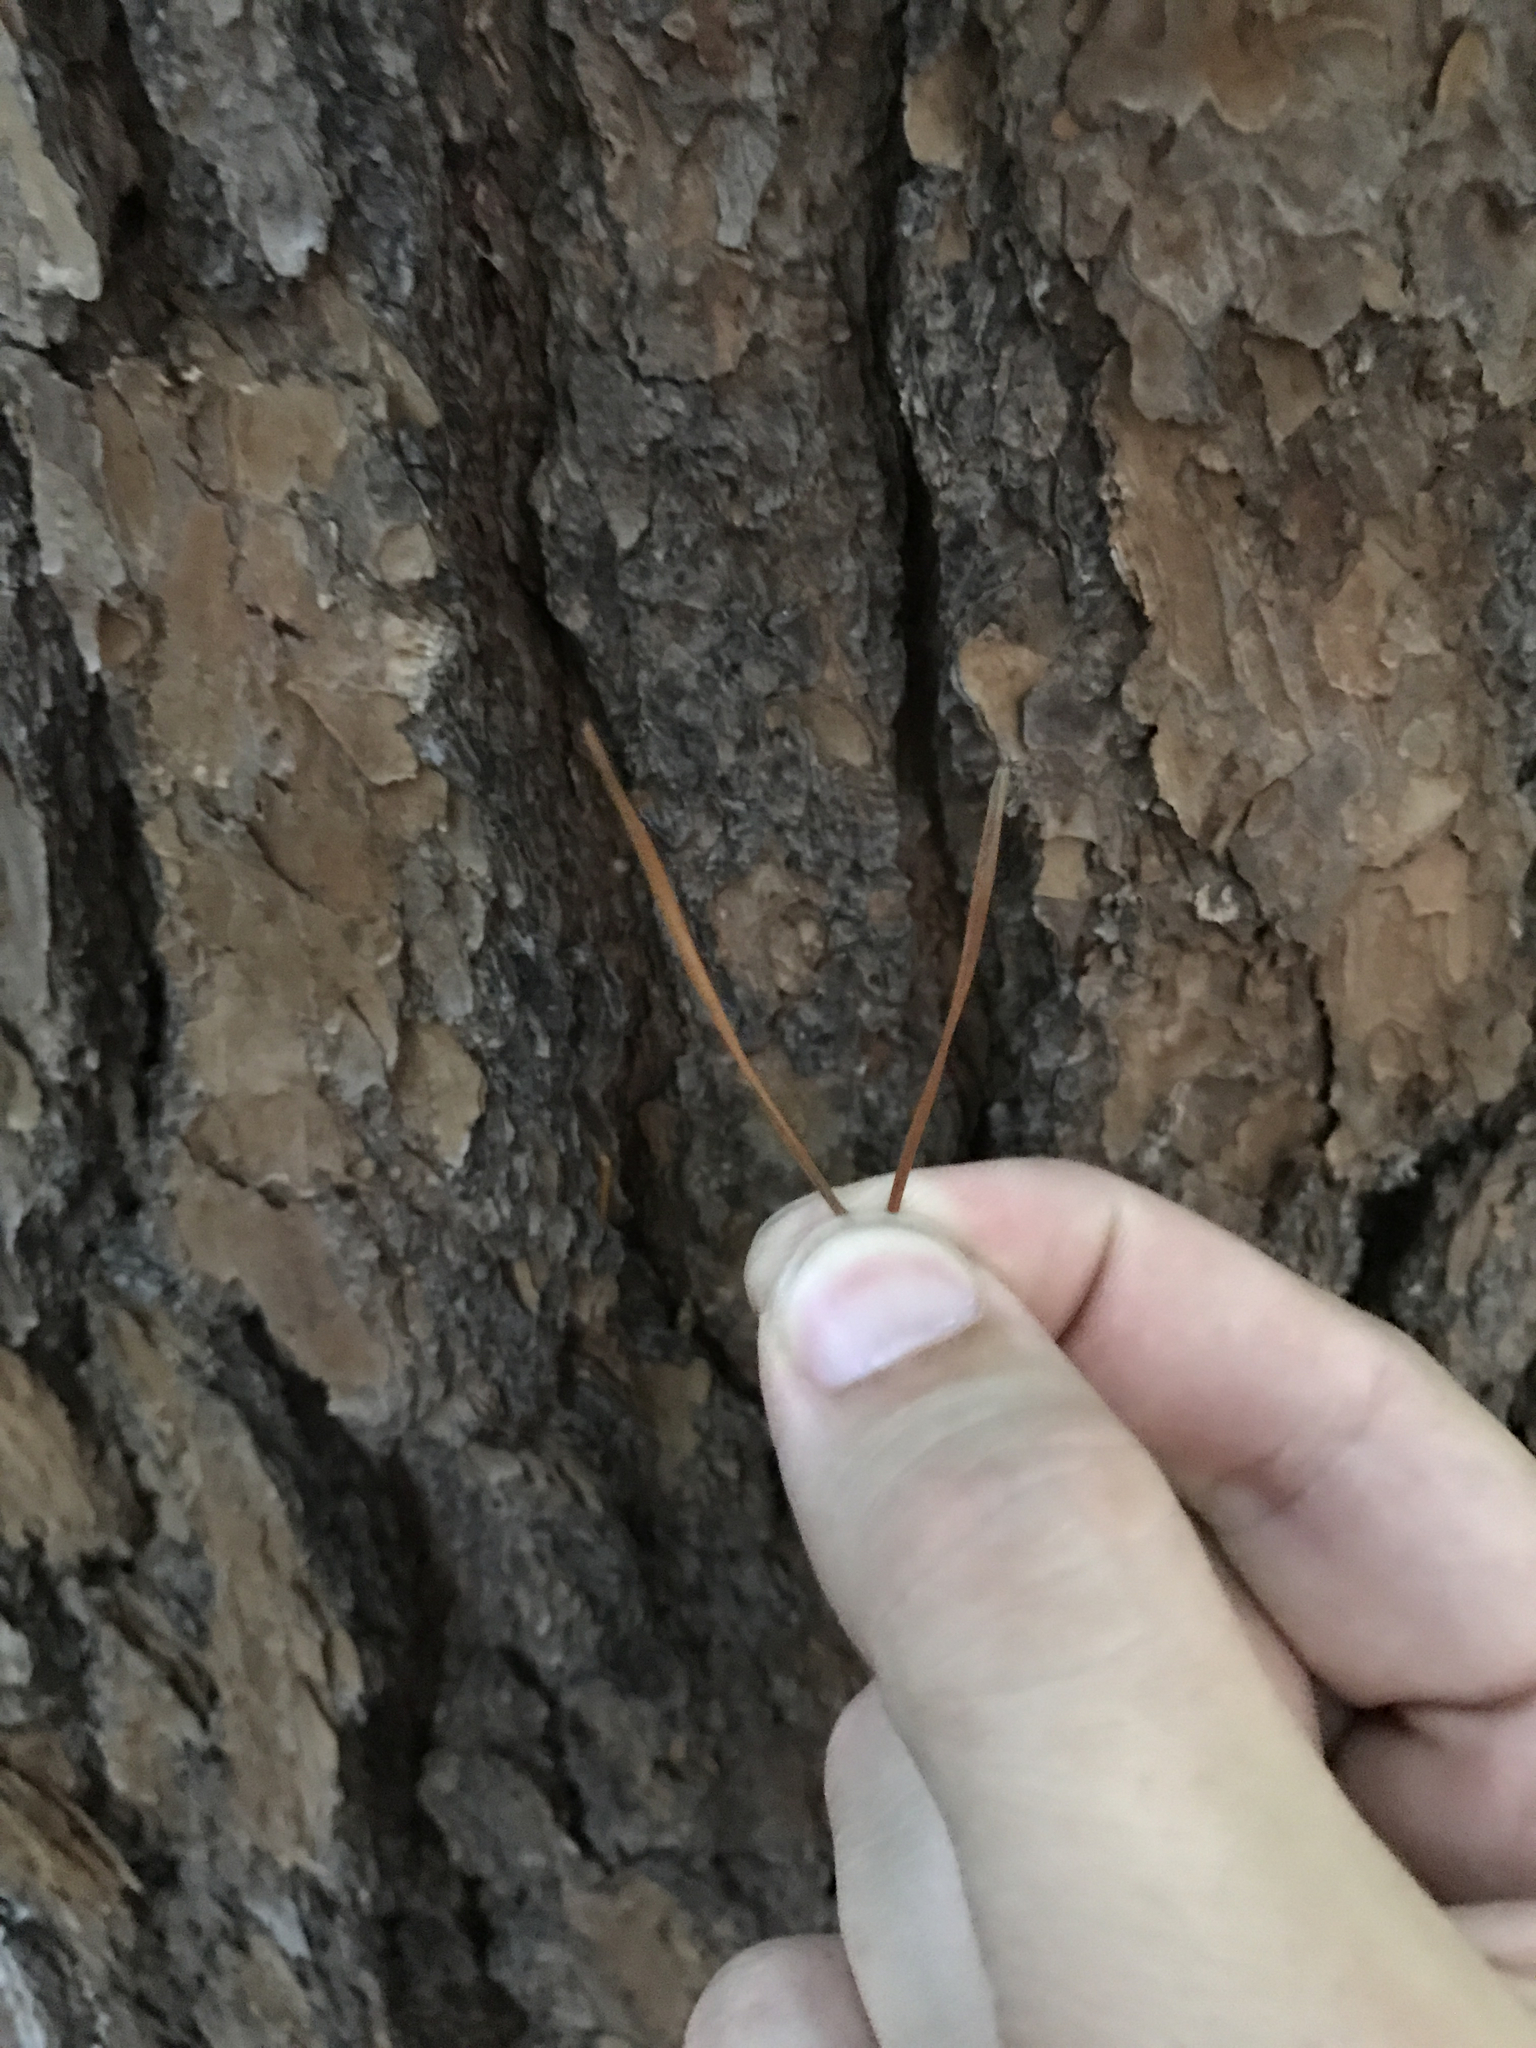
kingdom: Plantae
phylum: Tracheophyta
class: Pinopsida
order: Pinales
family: Pinaceae
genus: Pinus
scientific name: Pinus virginiana
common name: Scrub pine
